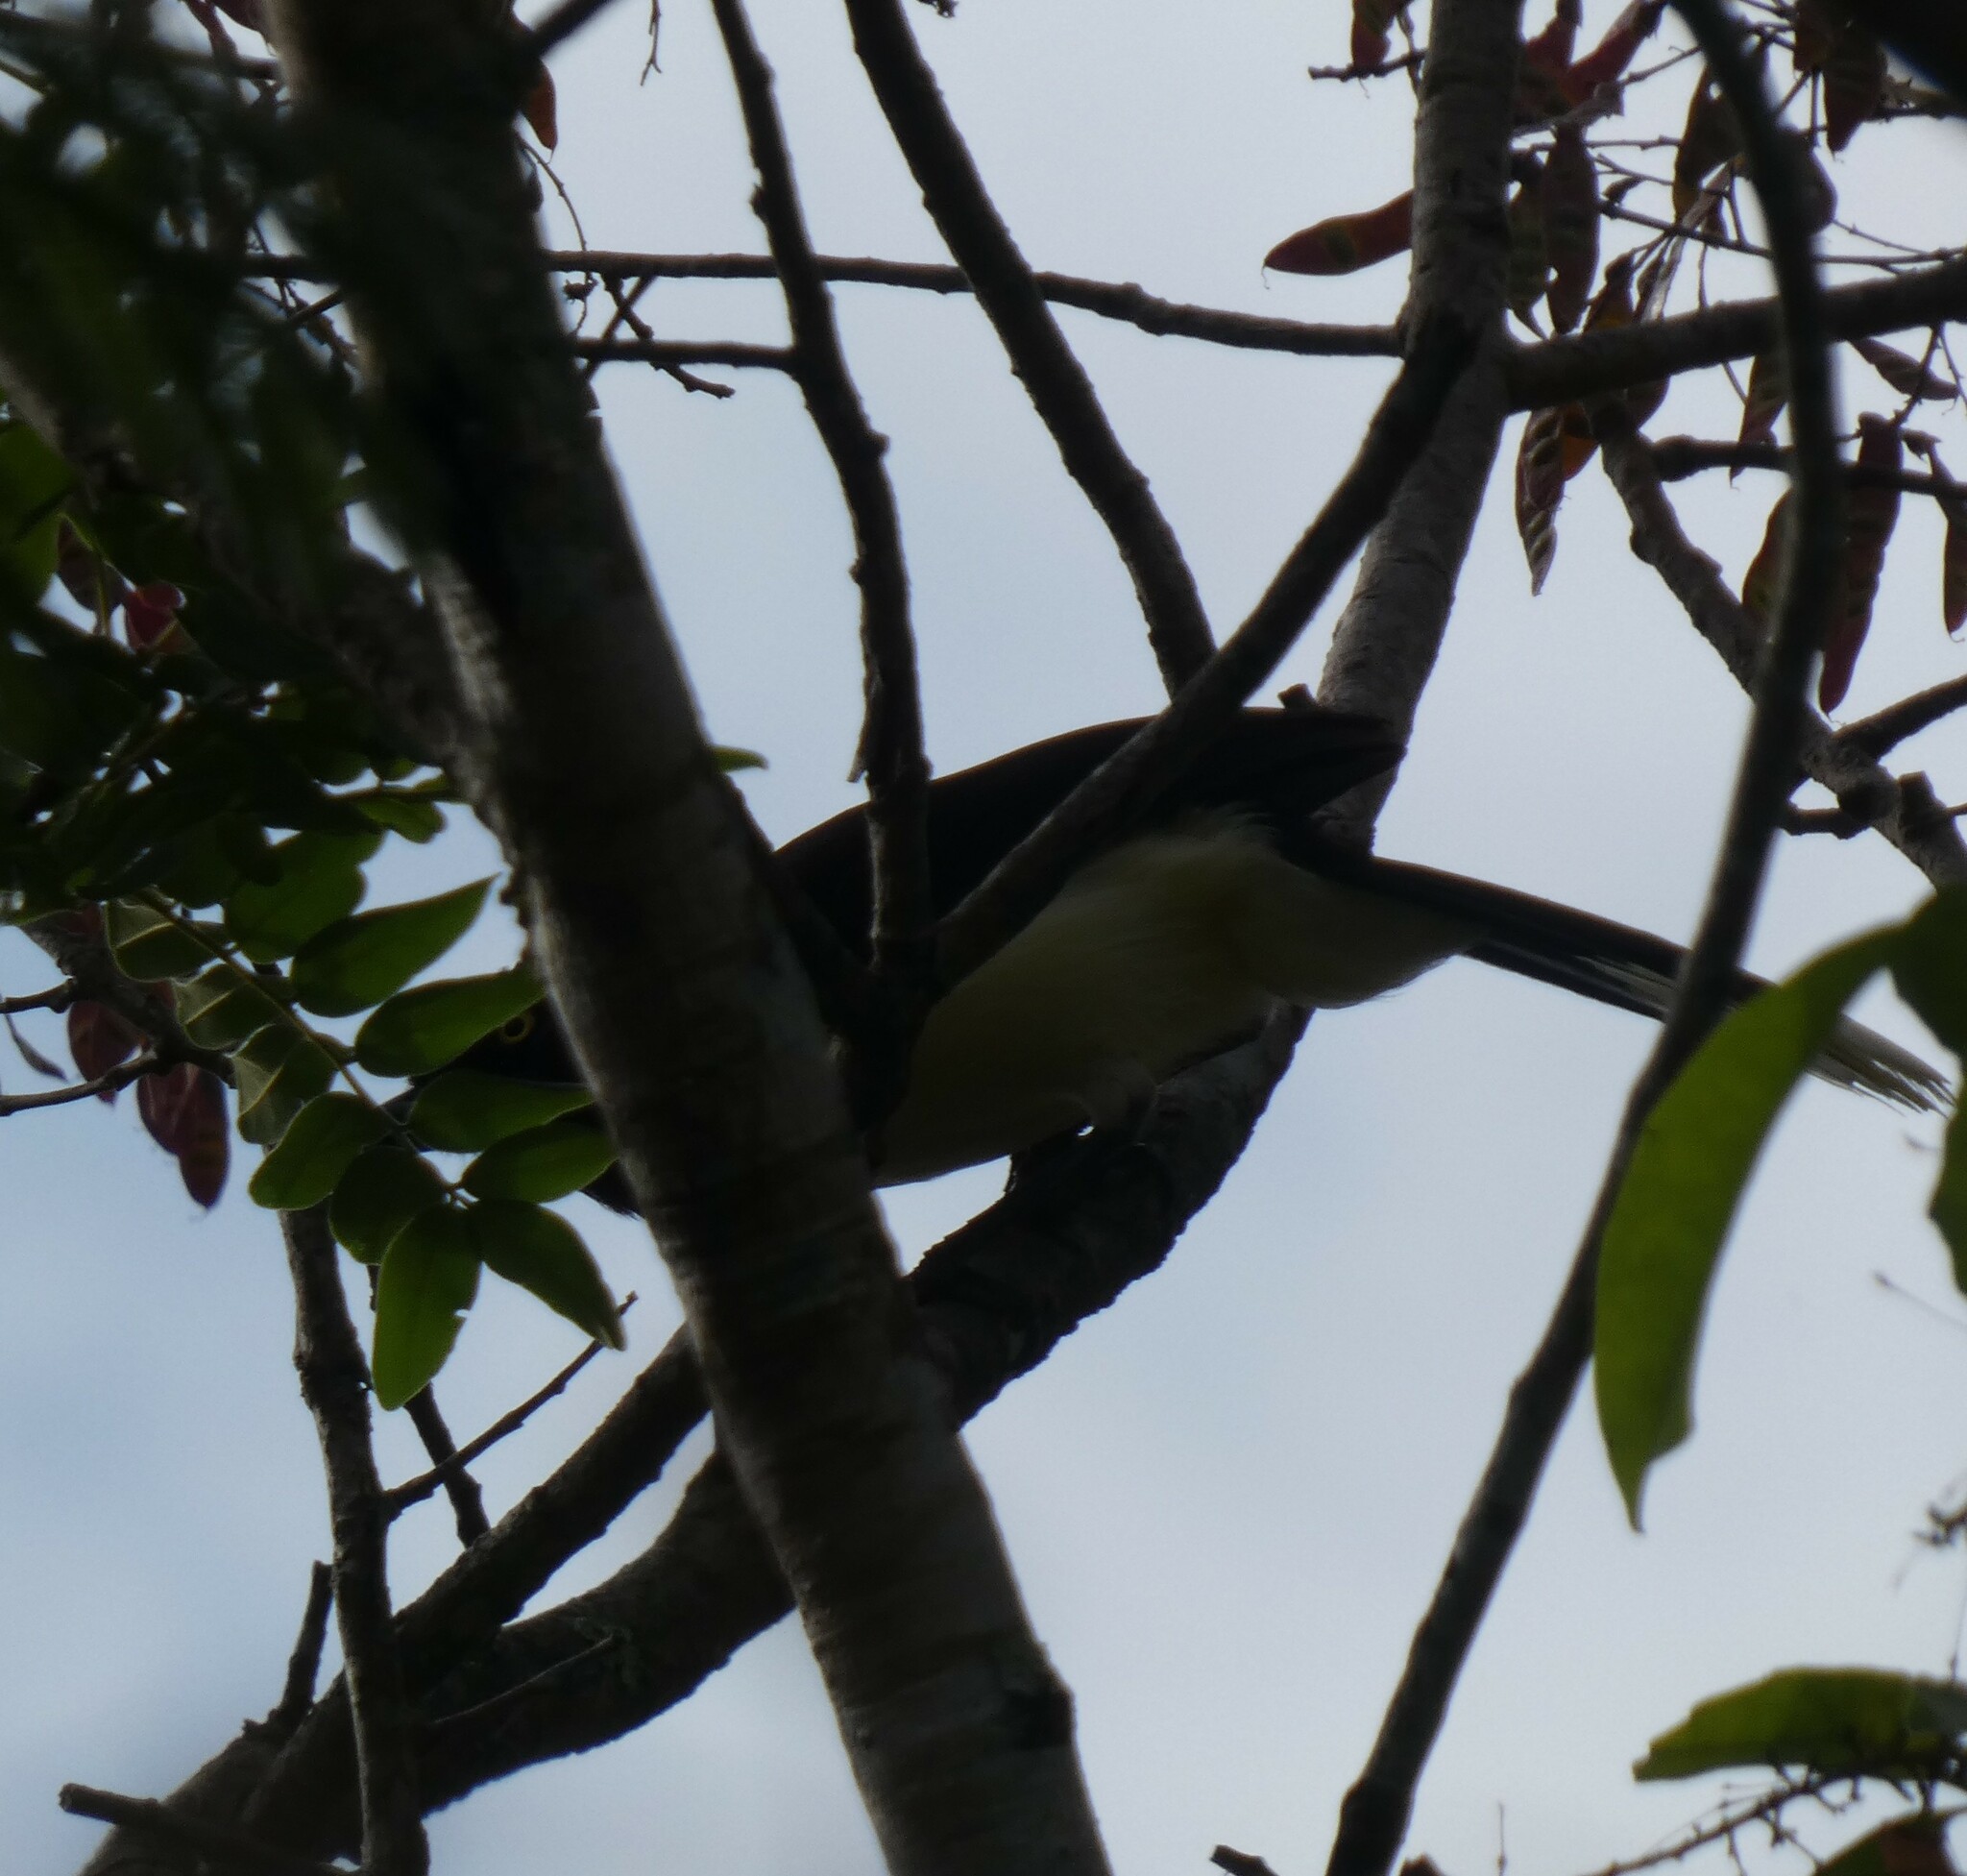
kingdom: Animalia
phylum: Chordata
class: Aves
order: Passeriformes
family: Corvidae
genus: Cyanocorax
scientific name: Cyanocorax cyanopogon
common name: White-naped jay
